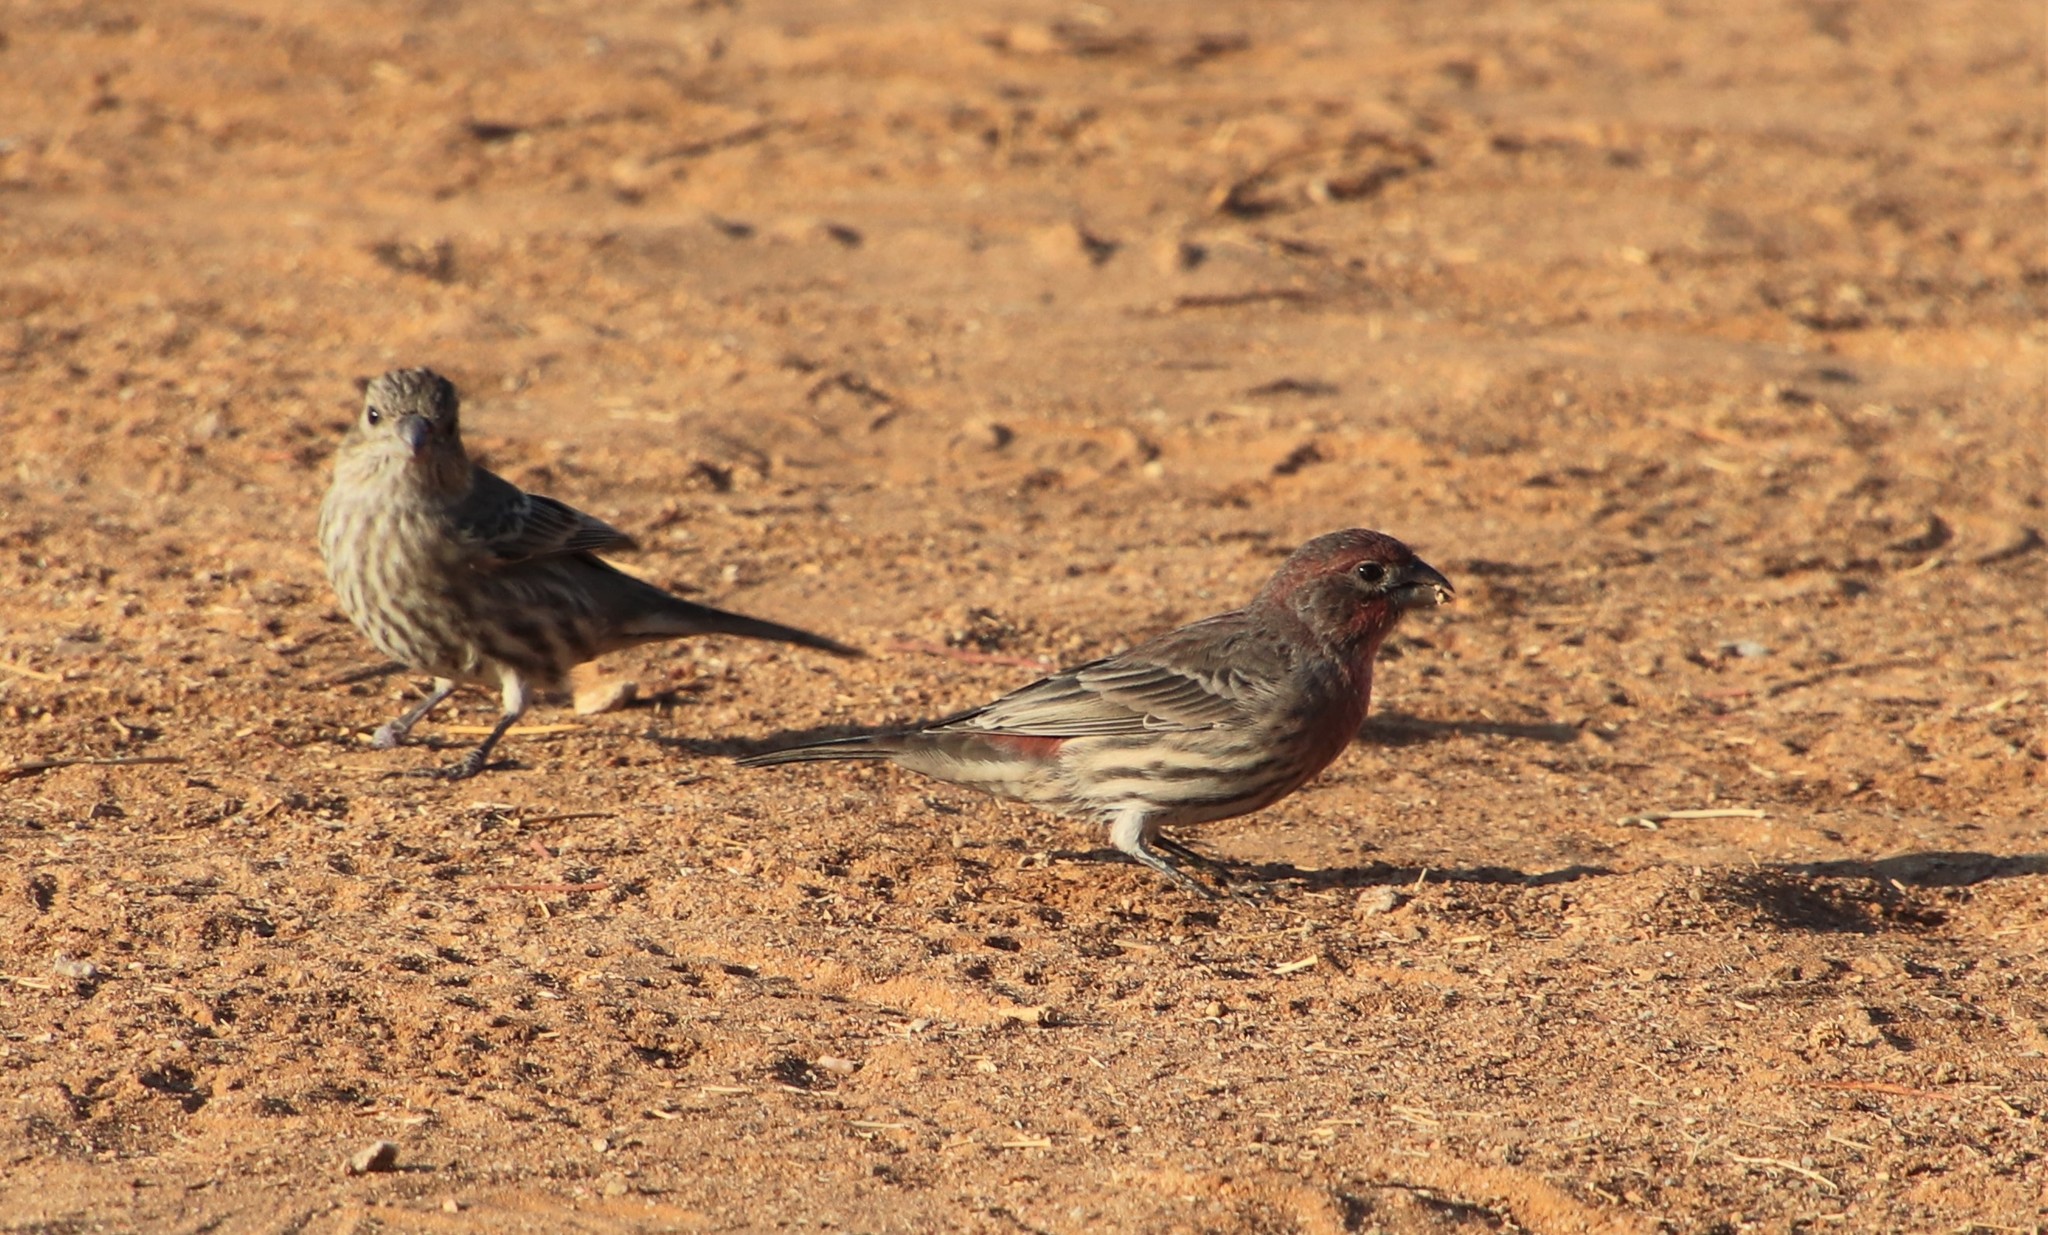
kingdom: Animalia
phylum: Chordata
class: Aves
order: Passeriformes
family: Fringillidae
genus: Haemorhous
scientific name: Haemorhous mexicanus
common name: House finch
